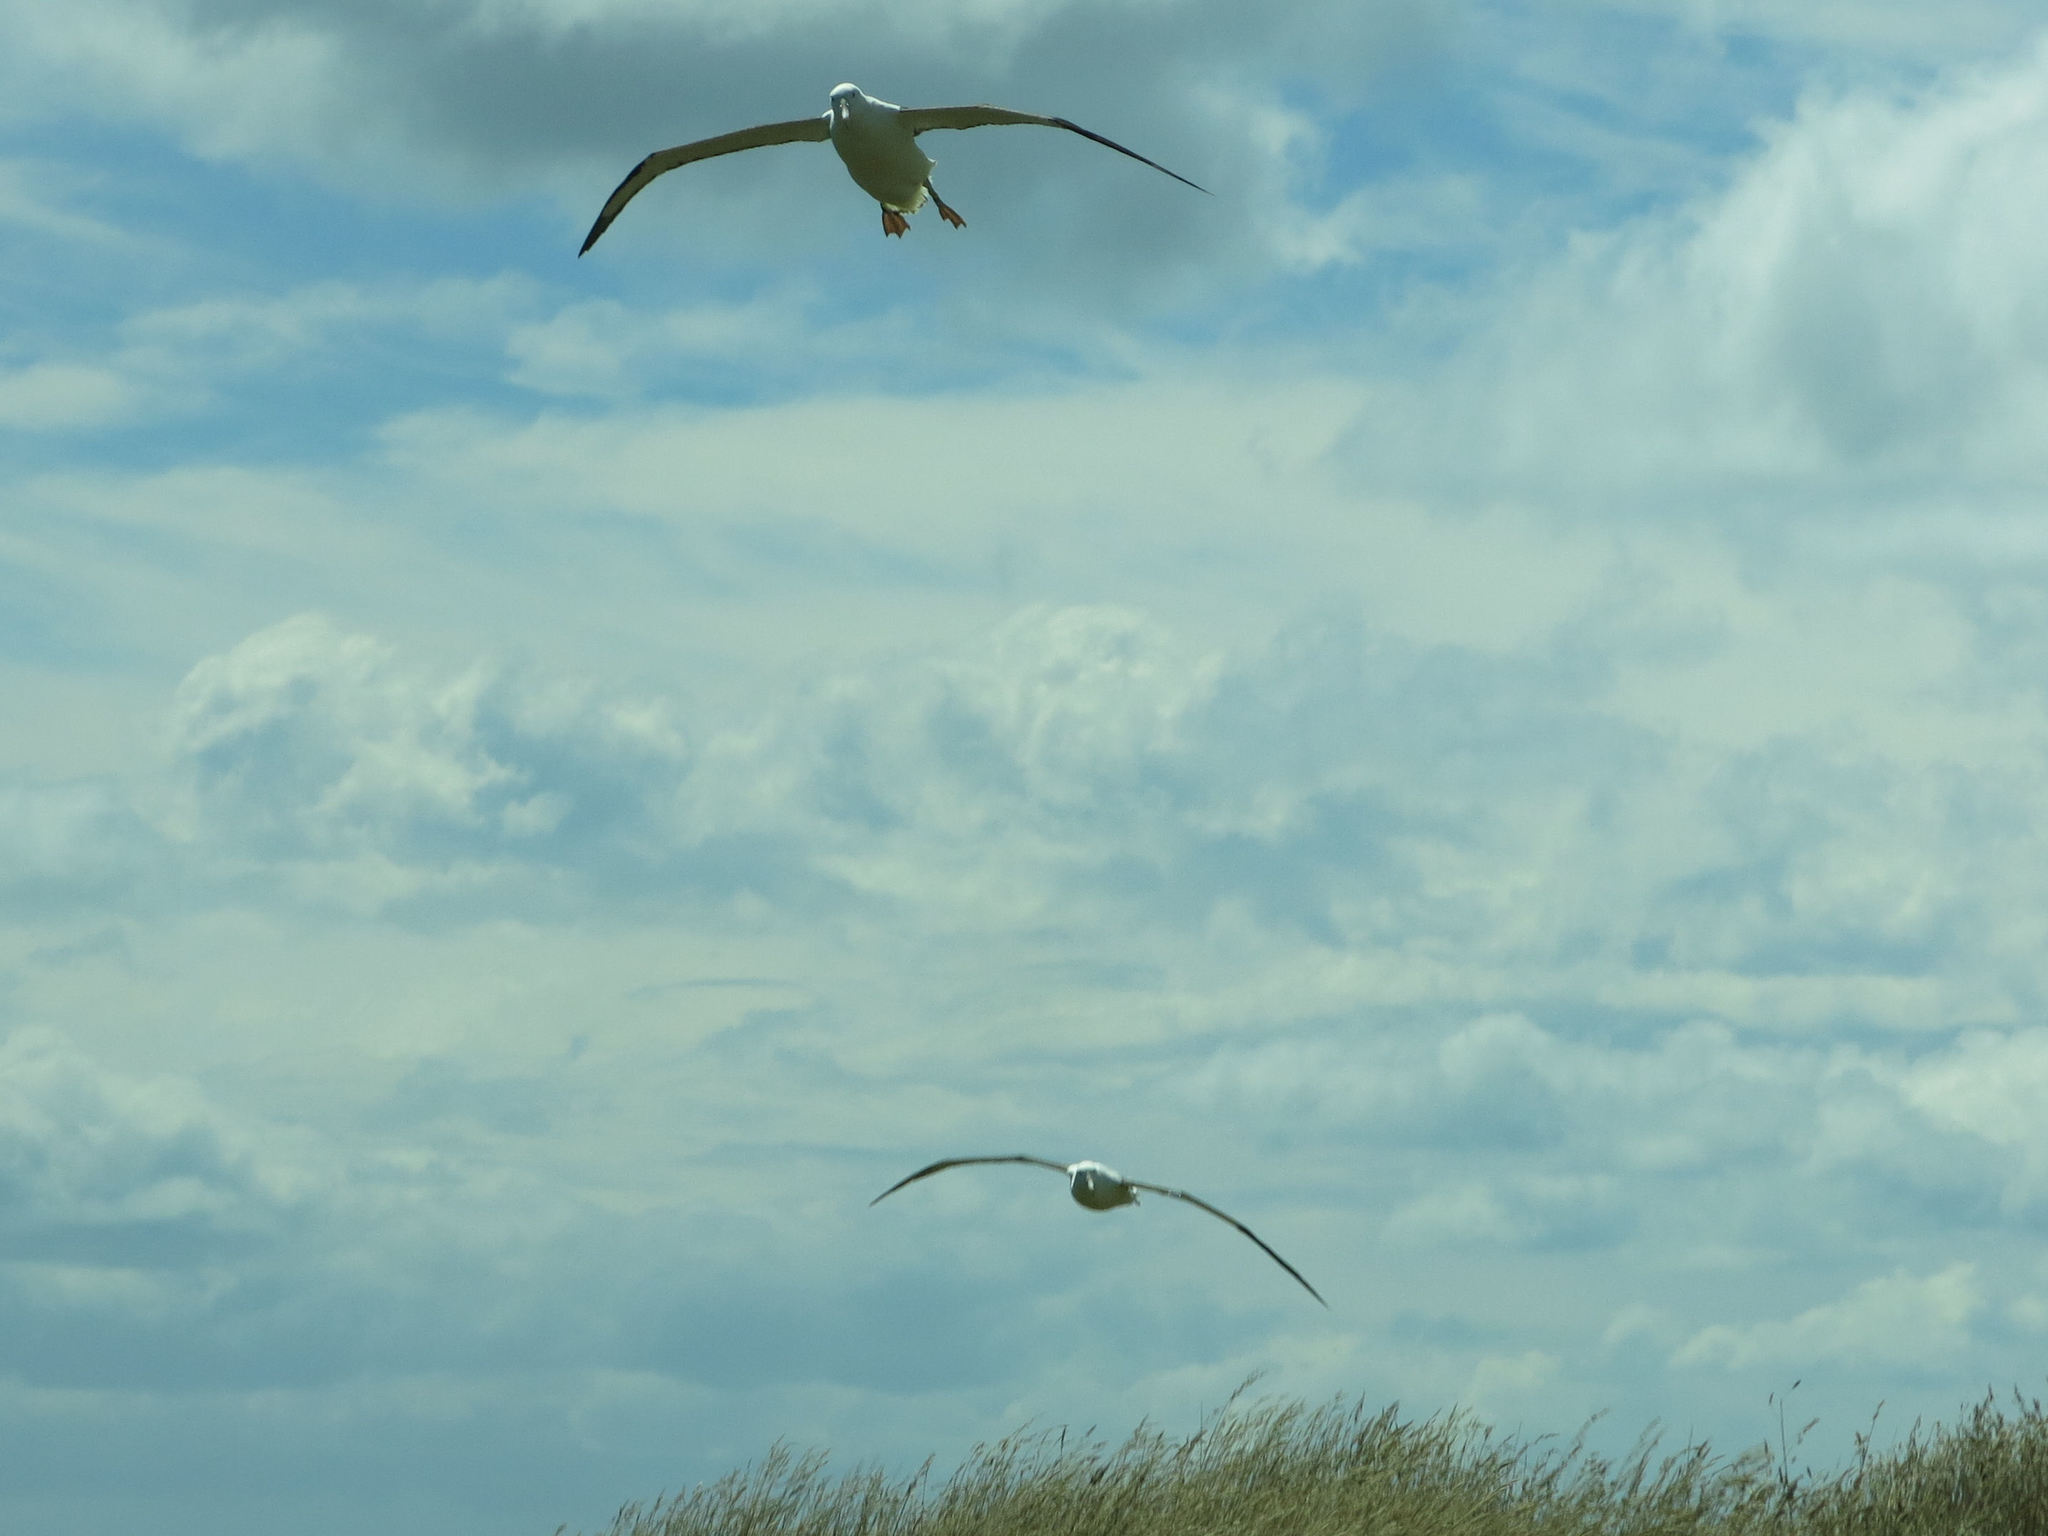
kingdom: Animalia
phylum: Chordata
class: Aves
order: Procellariiformes
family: Diomedeidae
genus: Diomedea
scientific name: Diomedea sanfordi
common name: Northern royal albatross
